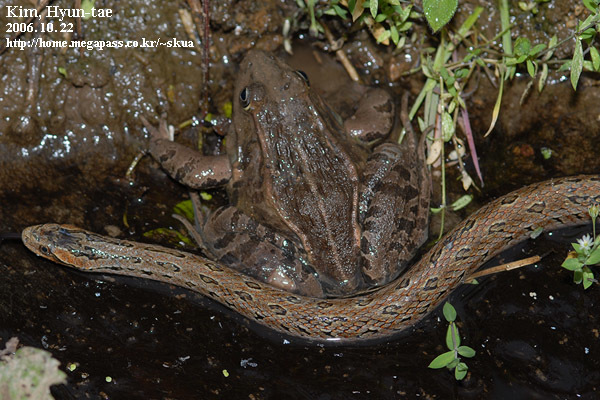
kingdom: Animalia
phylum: Chordata
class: Amphibia
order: Anura
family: Ranidae
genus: Pelophylax
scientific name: Pelophylax nigromaculatus
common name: Black-spotted pond frog
